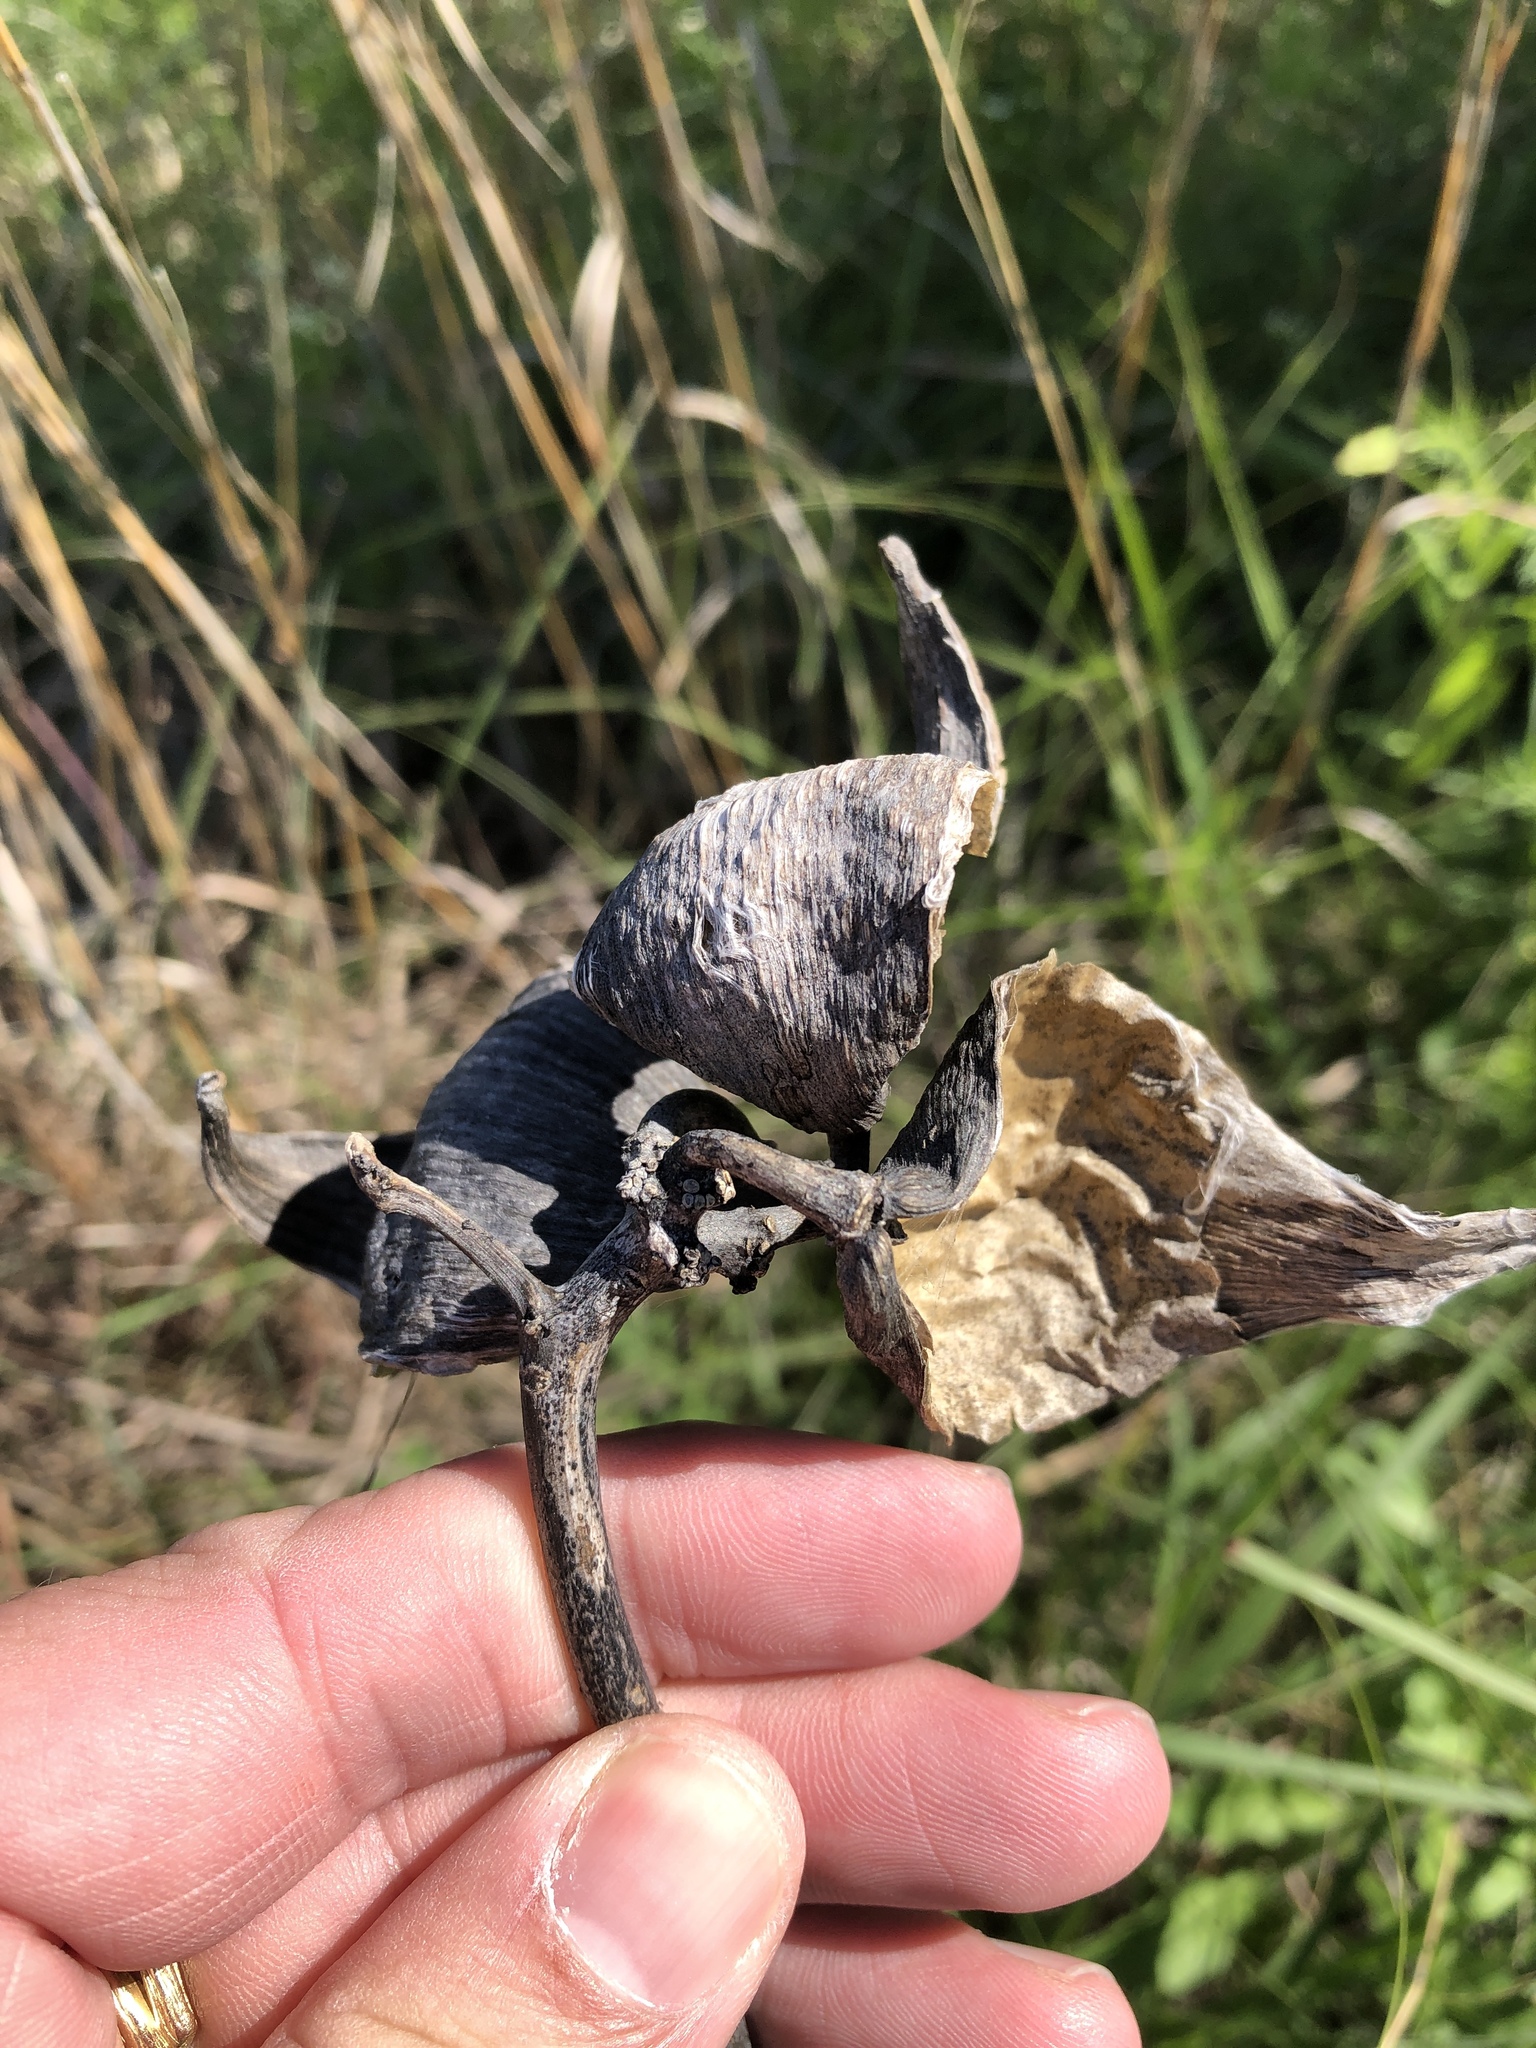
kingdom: Plantae
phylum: Tracheophyta
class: Magnoliopsida
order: Gentianales
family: Apocynaceae
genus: Asclepias
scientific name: Asclepias viridiflora
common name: Green comet milkweed
